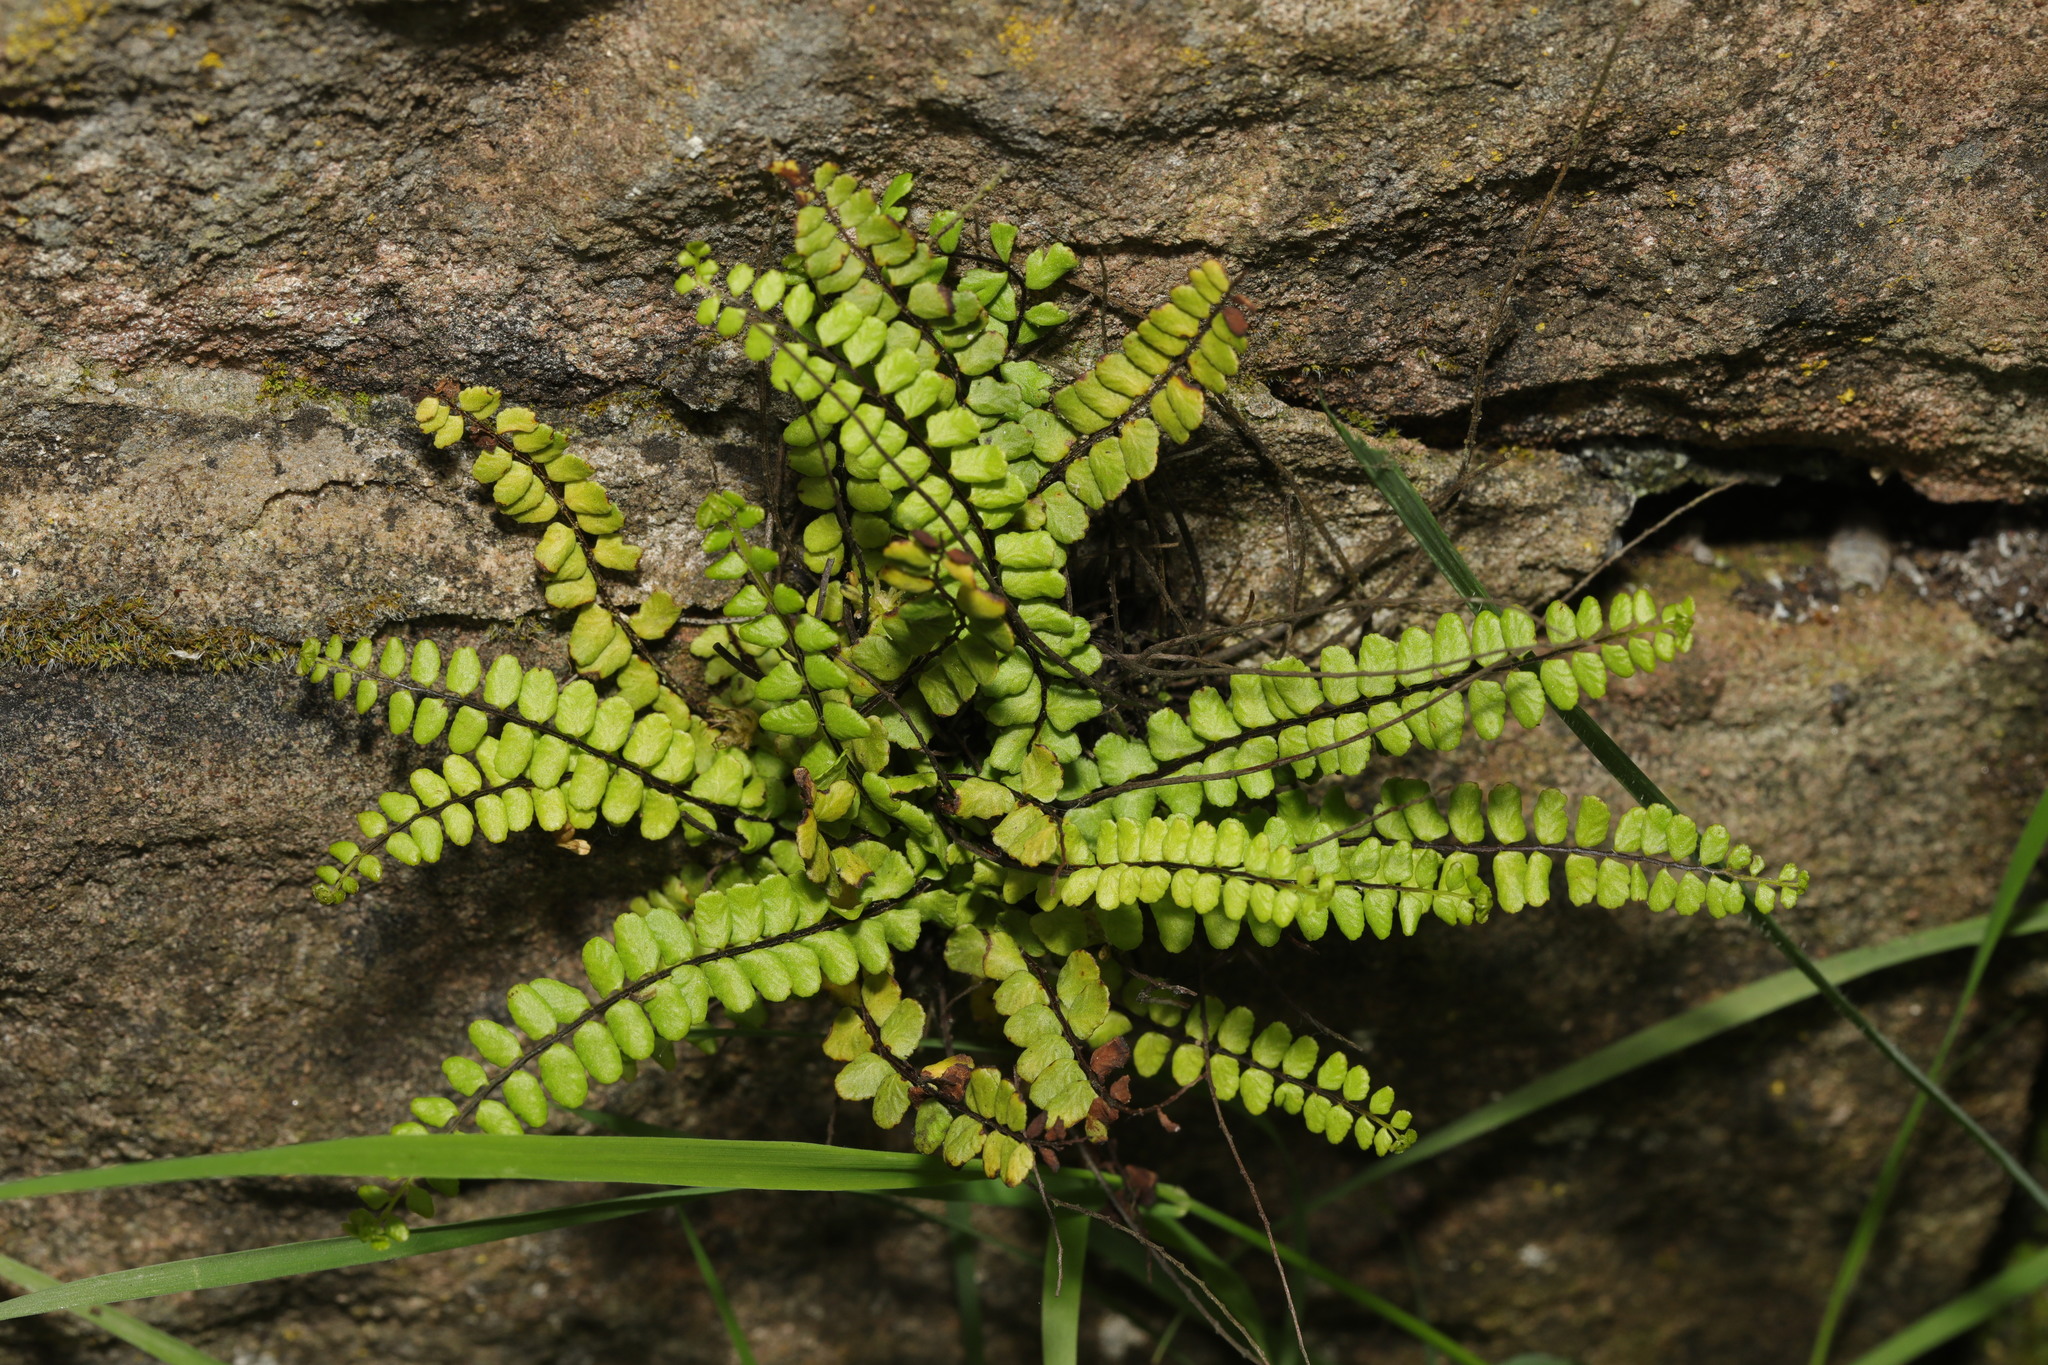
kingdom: Plantae
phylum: Tracheophyta
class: Polypodiopsida
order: Polypodiales
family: Aspleniaceae
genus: Asplenium
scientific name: Asplenium trichomanes
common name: Maidenhair spleenwort
